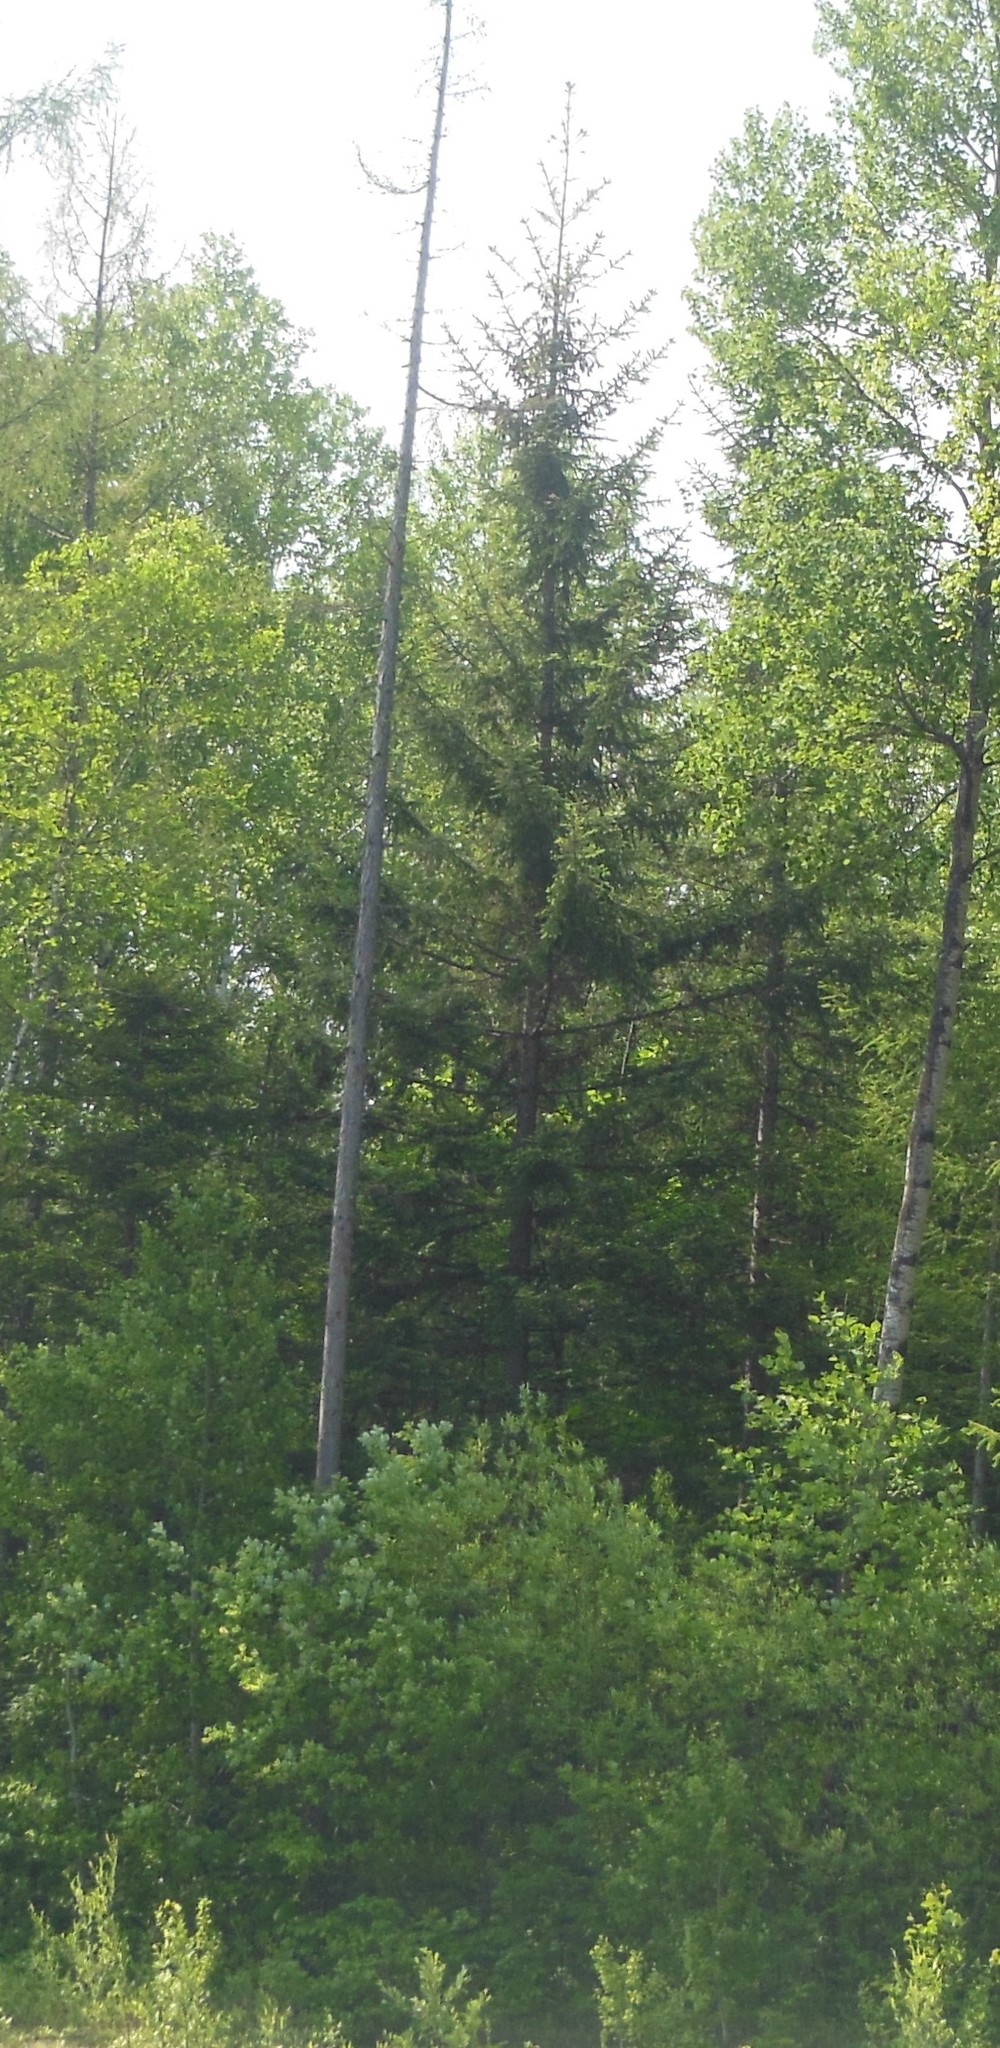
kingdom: Plantae
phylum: Tracheophyta
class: Pinopsida
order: Pinales
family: Pinaceae
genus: Picea
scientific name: Picea jezoensis
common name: Yeddo spruce
